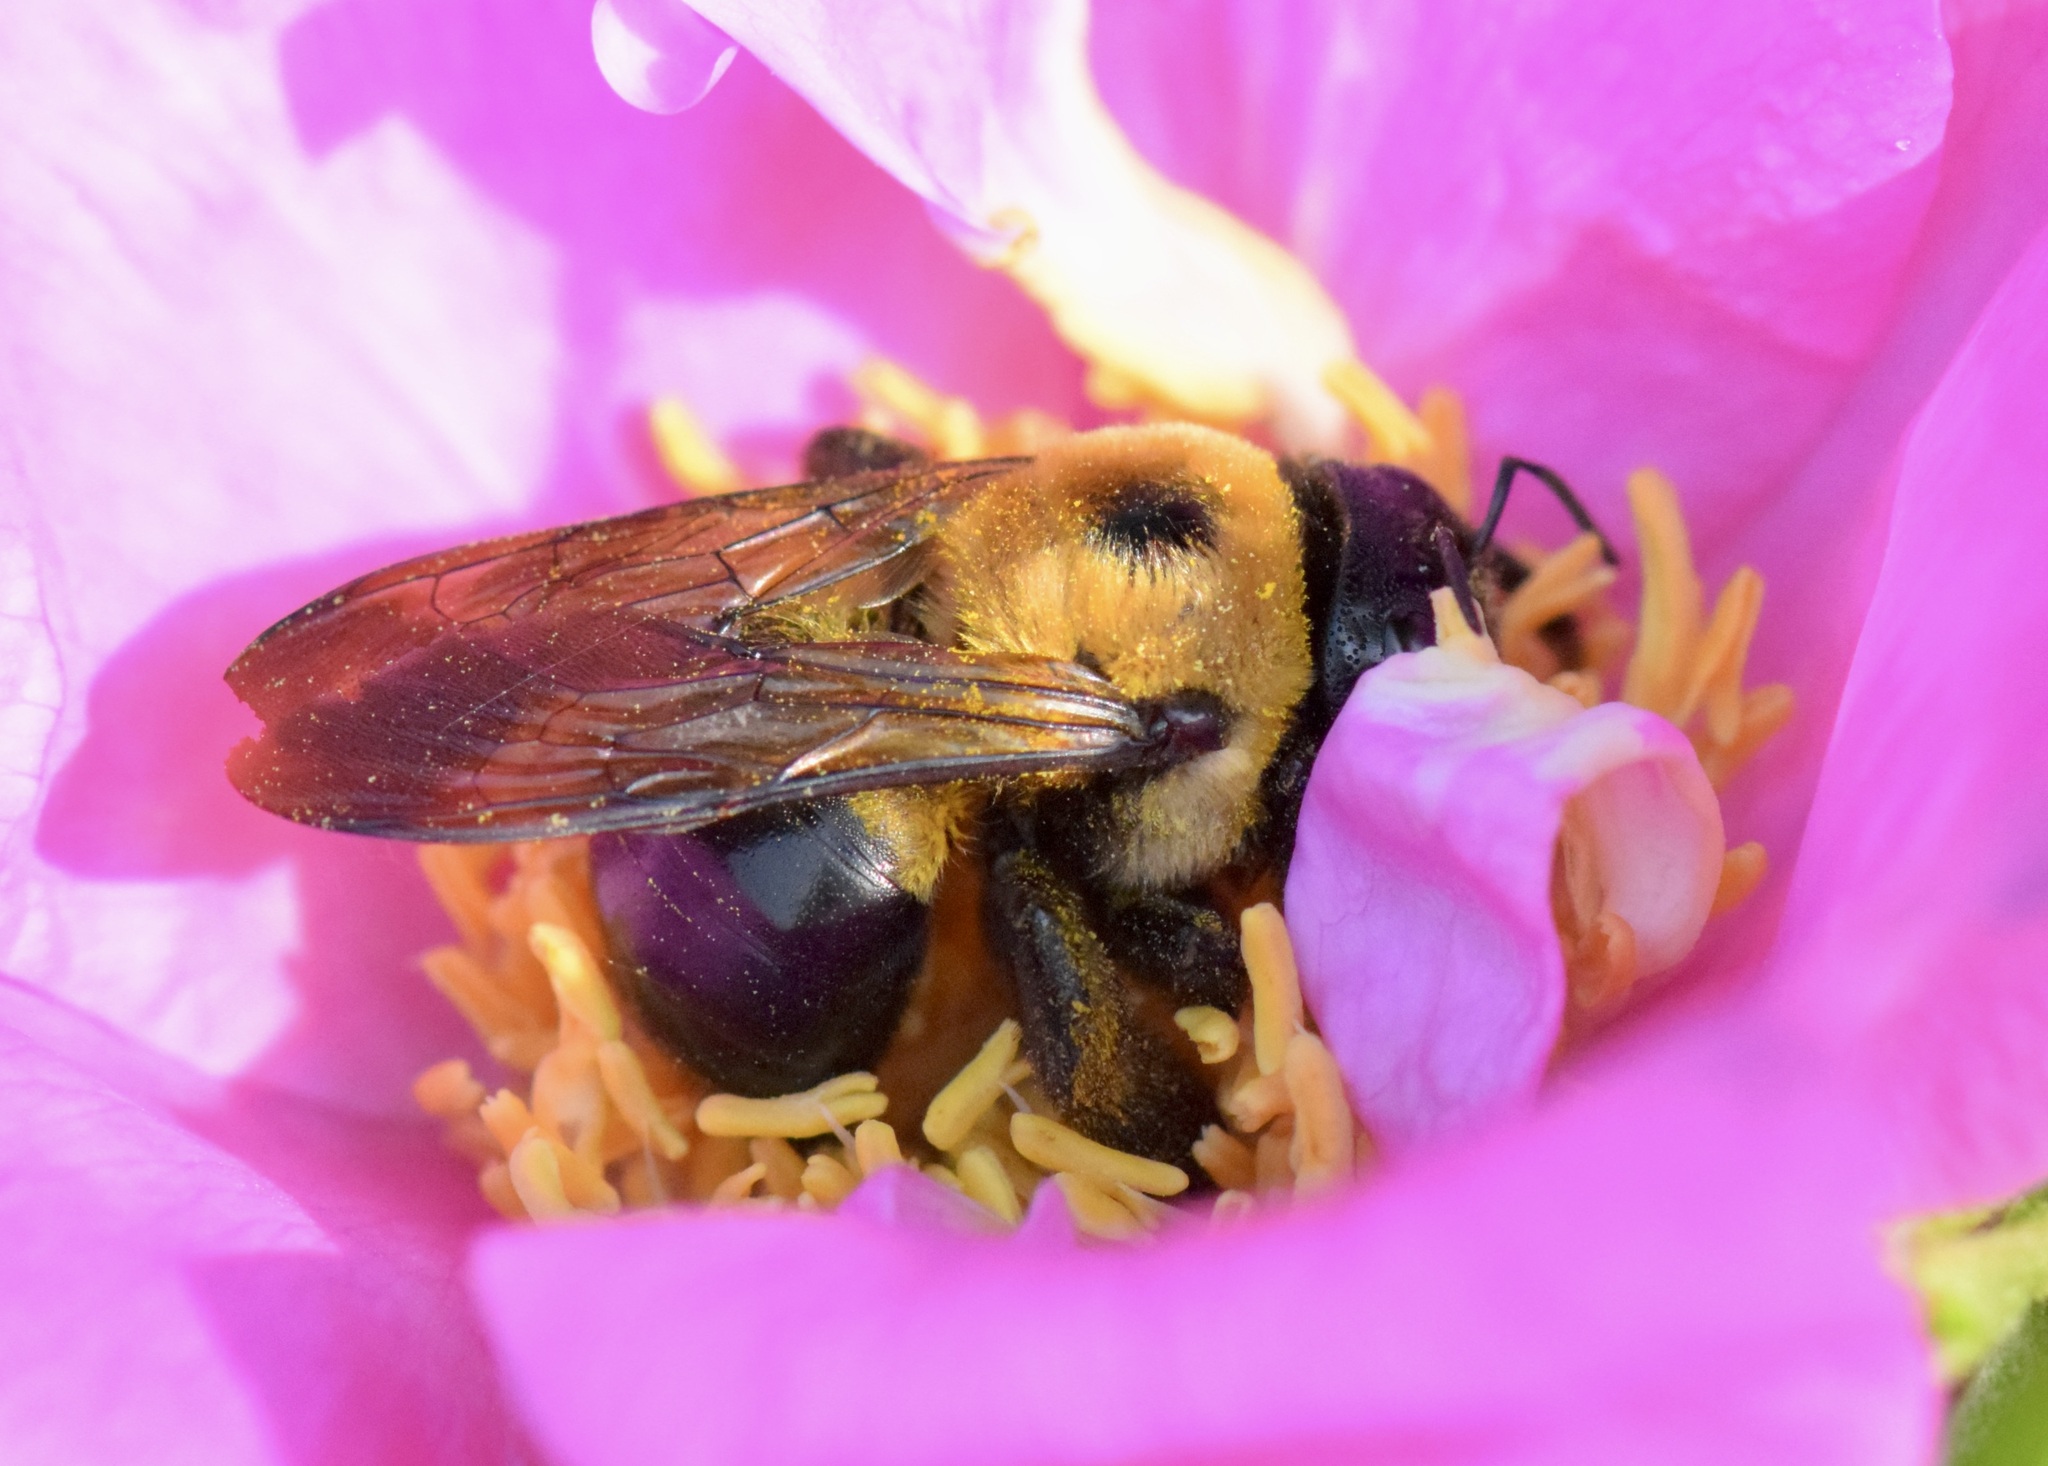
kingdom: Animalia
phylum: Arthropoda
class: Insecta
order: Hymenoptera
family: Apidae
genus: Xylocopa
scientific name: Xylocopa virginica
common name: Carpenter bee
